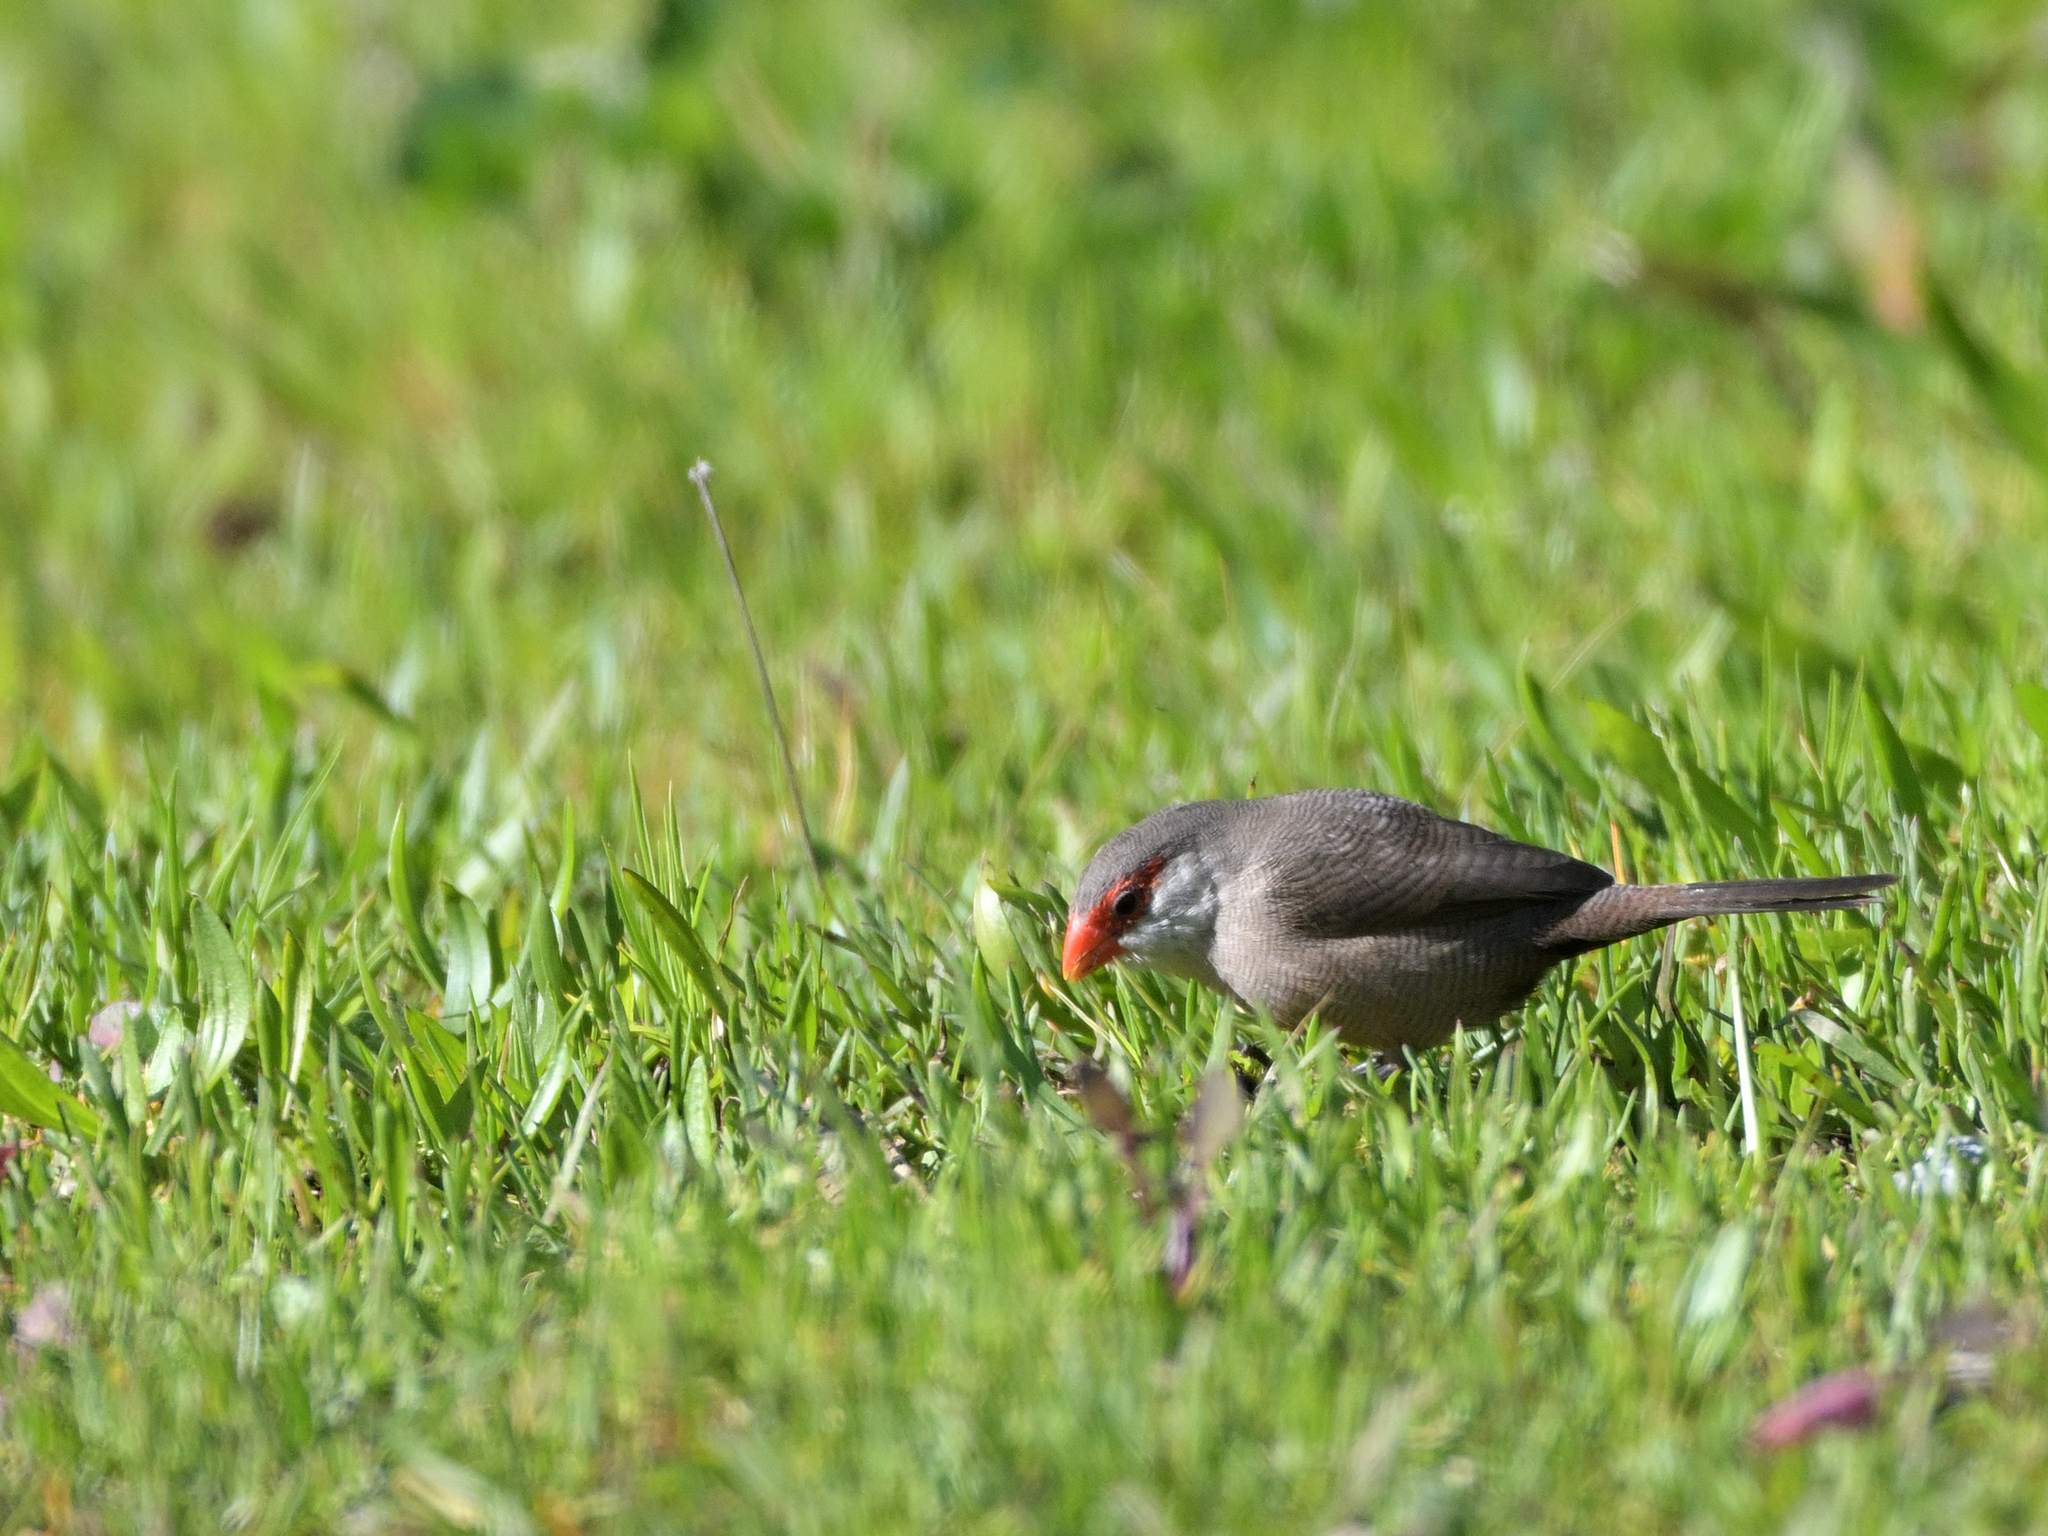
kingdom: Animalia
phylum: Chordata
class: Aves
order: Passeriformes
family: Estrildidae
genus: Estrilda
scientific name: Estrilda astrild
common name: Common waxbill
